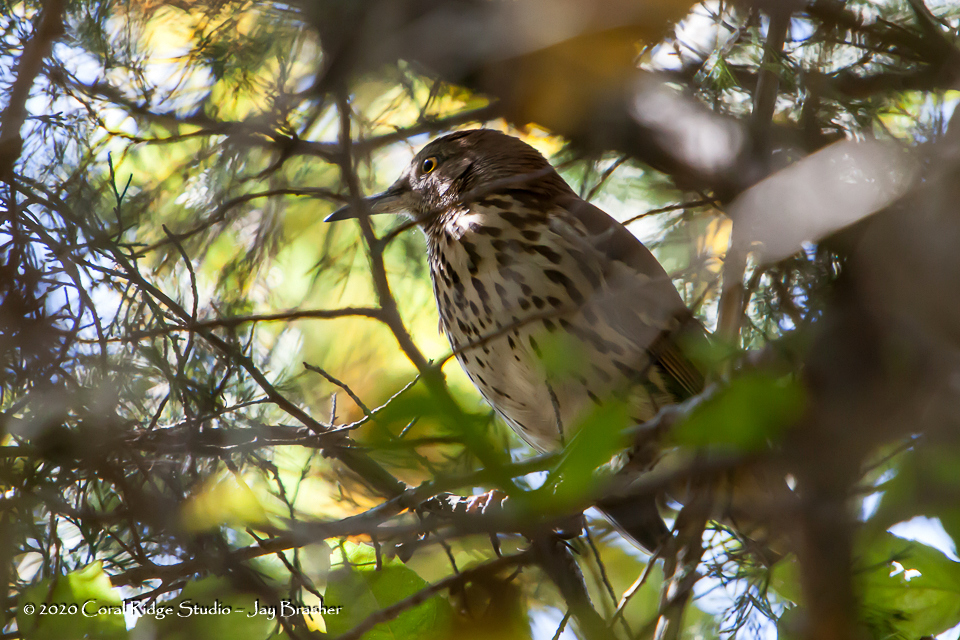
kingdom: Animalia
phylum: Chordata
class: Aves
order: Passeriformes
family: Mimidae
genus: Toxostoma
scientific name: Toxostoma rufum
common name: Brown thrasher
